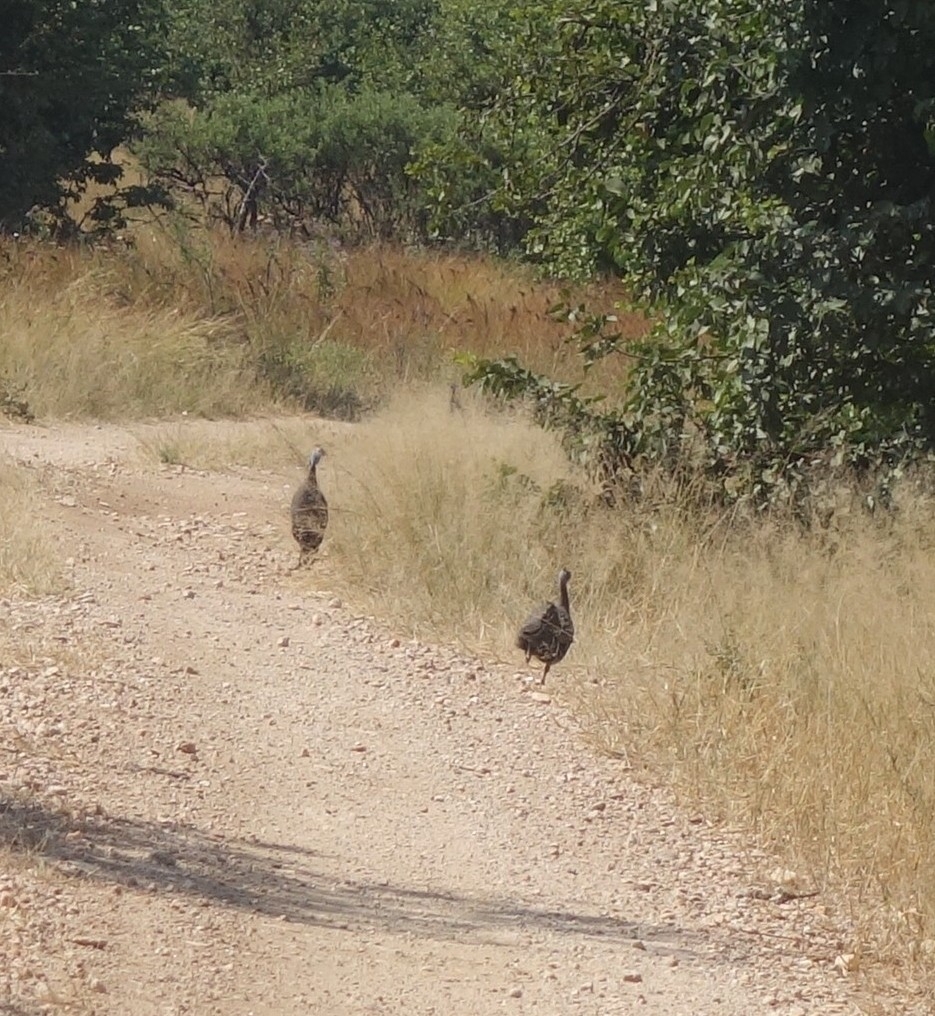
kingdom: Animalia
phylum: Chordata
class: Aves
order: Galliformes
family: Numididae
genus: Numida
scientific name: Numida meleagris
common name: Helmeted guineafowl
